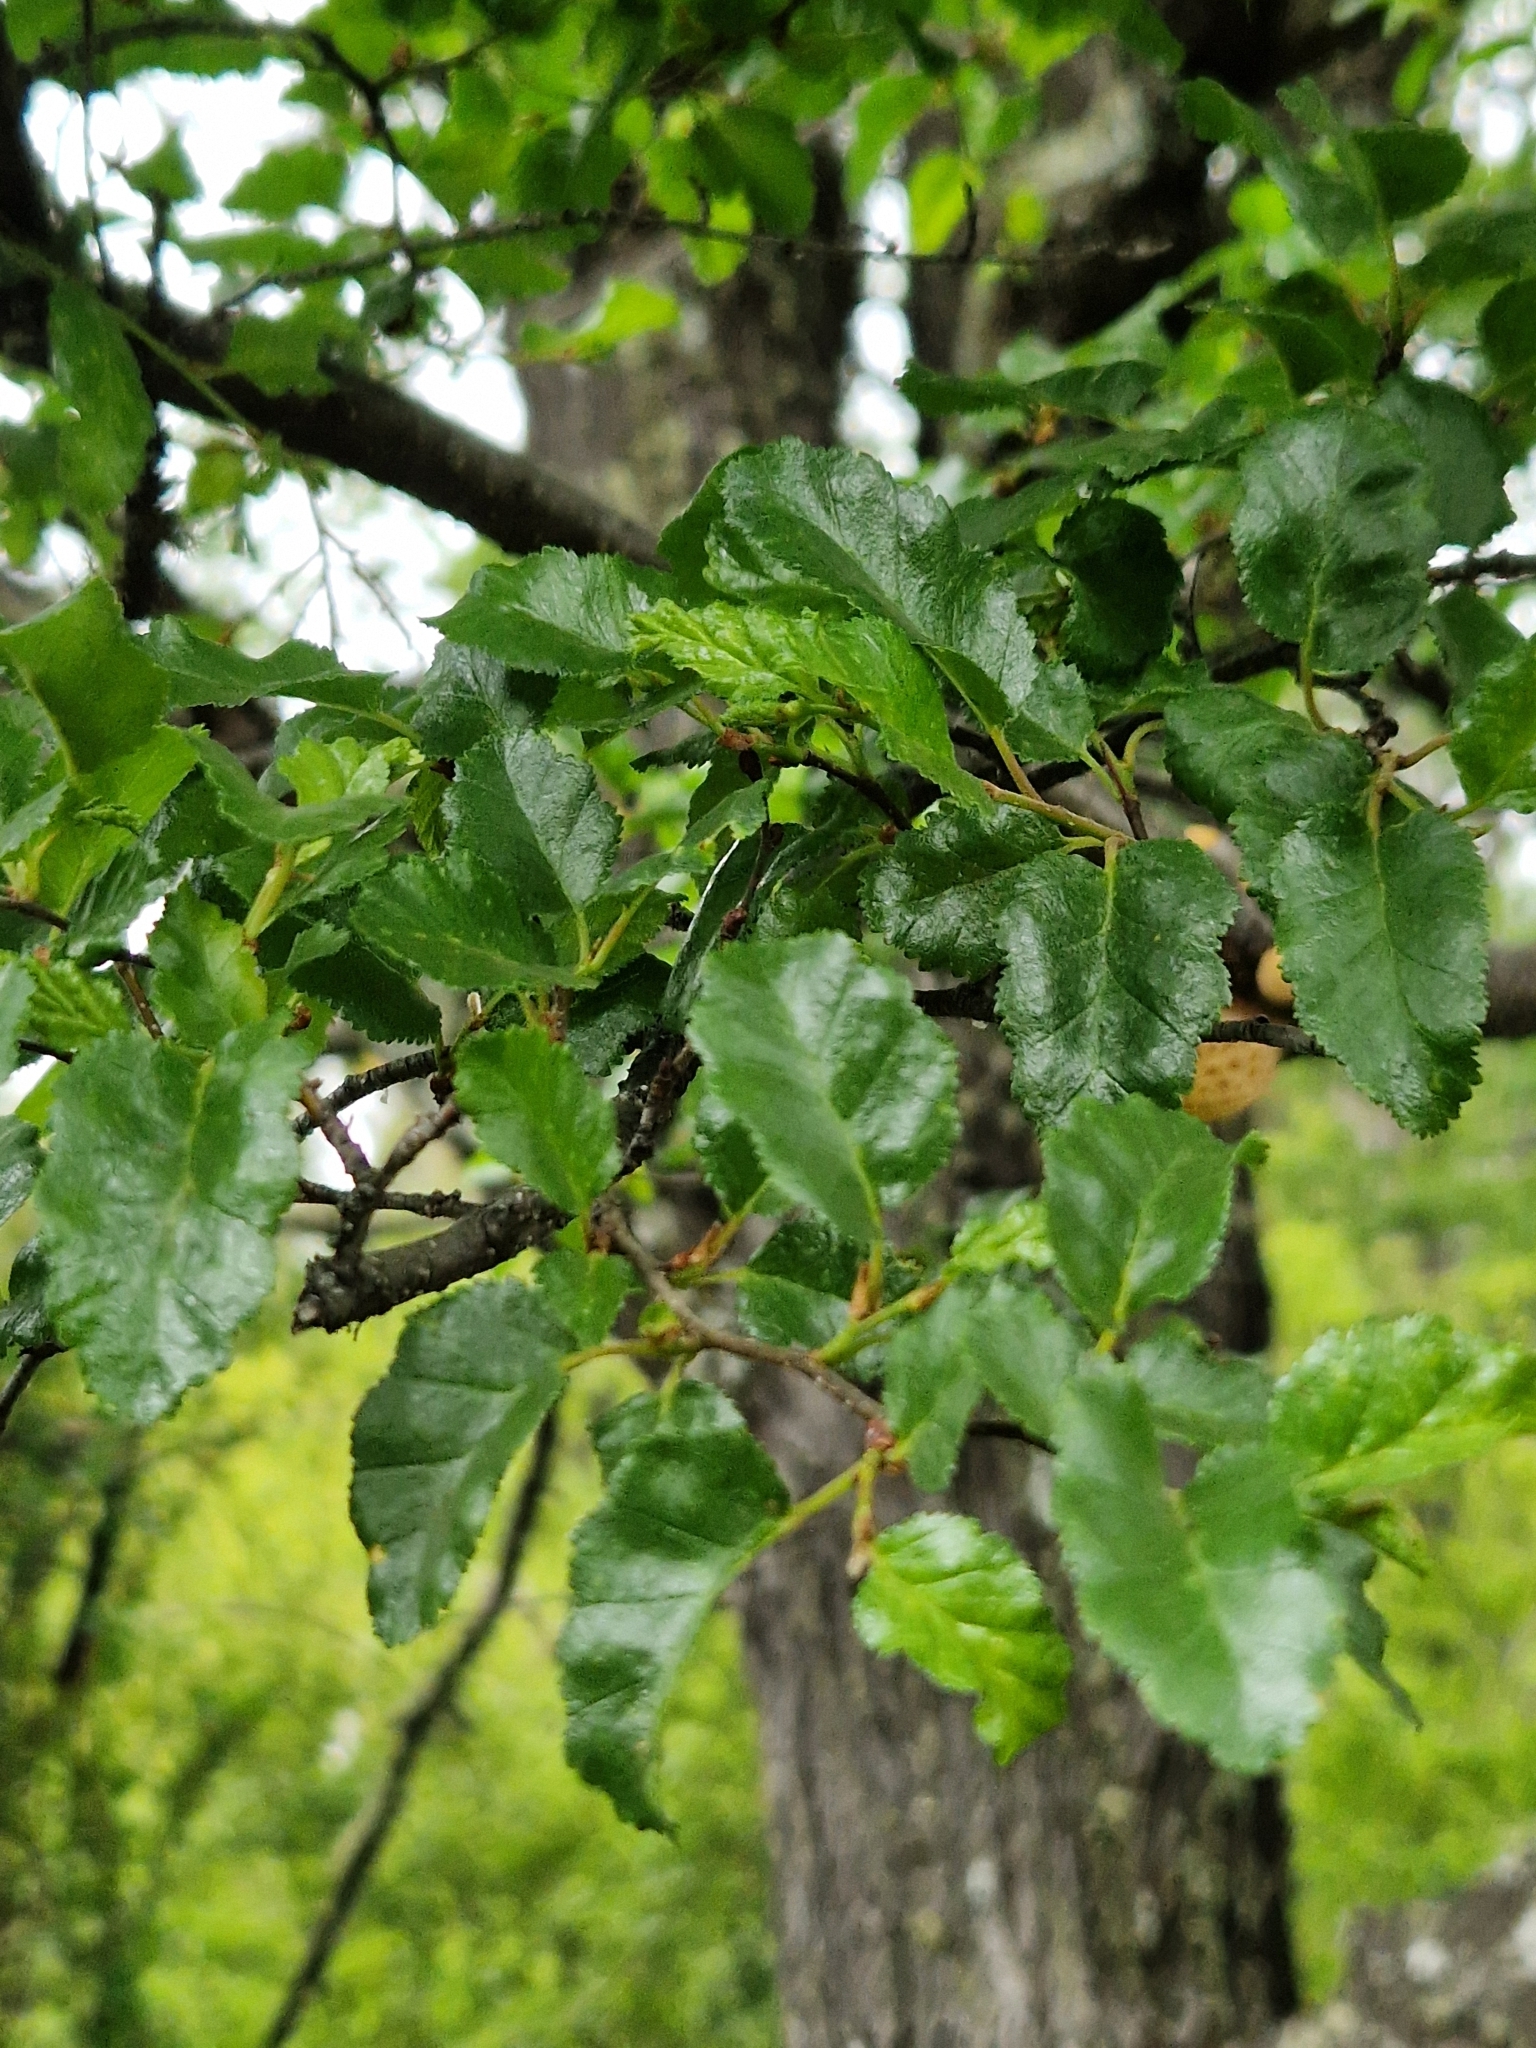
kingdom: Plantae
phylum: Tracheophyta
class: Magnoliopsida
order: Fagales
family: Nothofagaceae
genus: Nothofagus
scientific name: Nothofagus antarctica
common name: Antarctic beech
